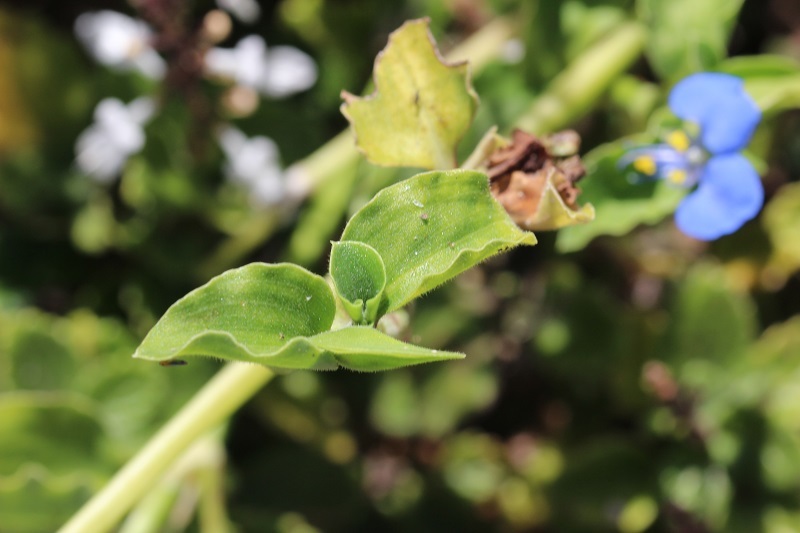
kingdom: Plantae
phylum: Tracheophyta
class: Liliopsida
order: Commelinales
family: Commelinaceae
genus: Commelina
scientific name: Commelina benghalensis
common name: Jio
